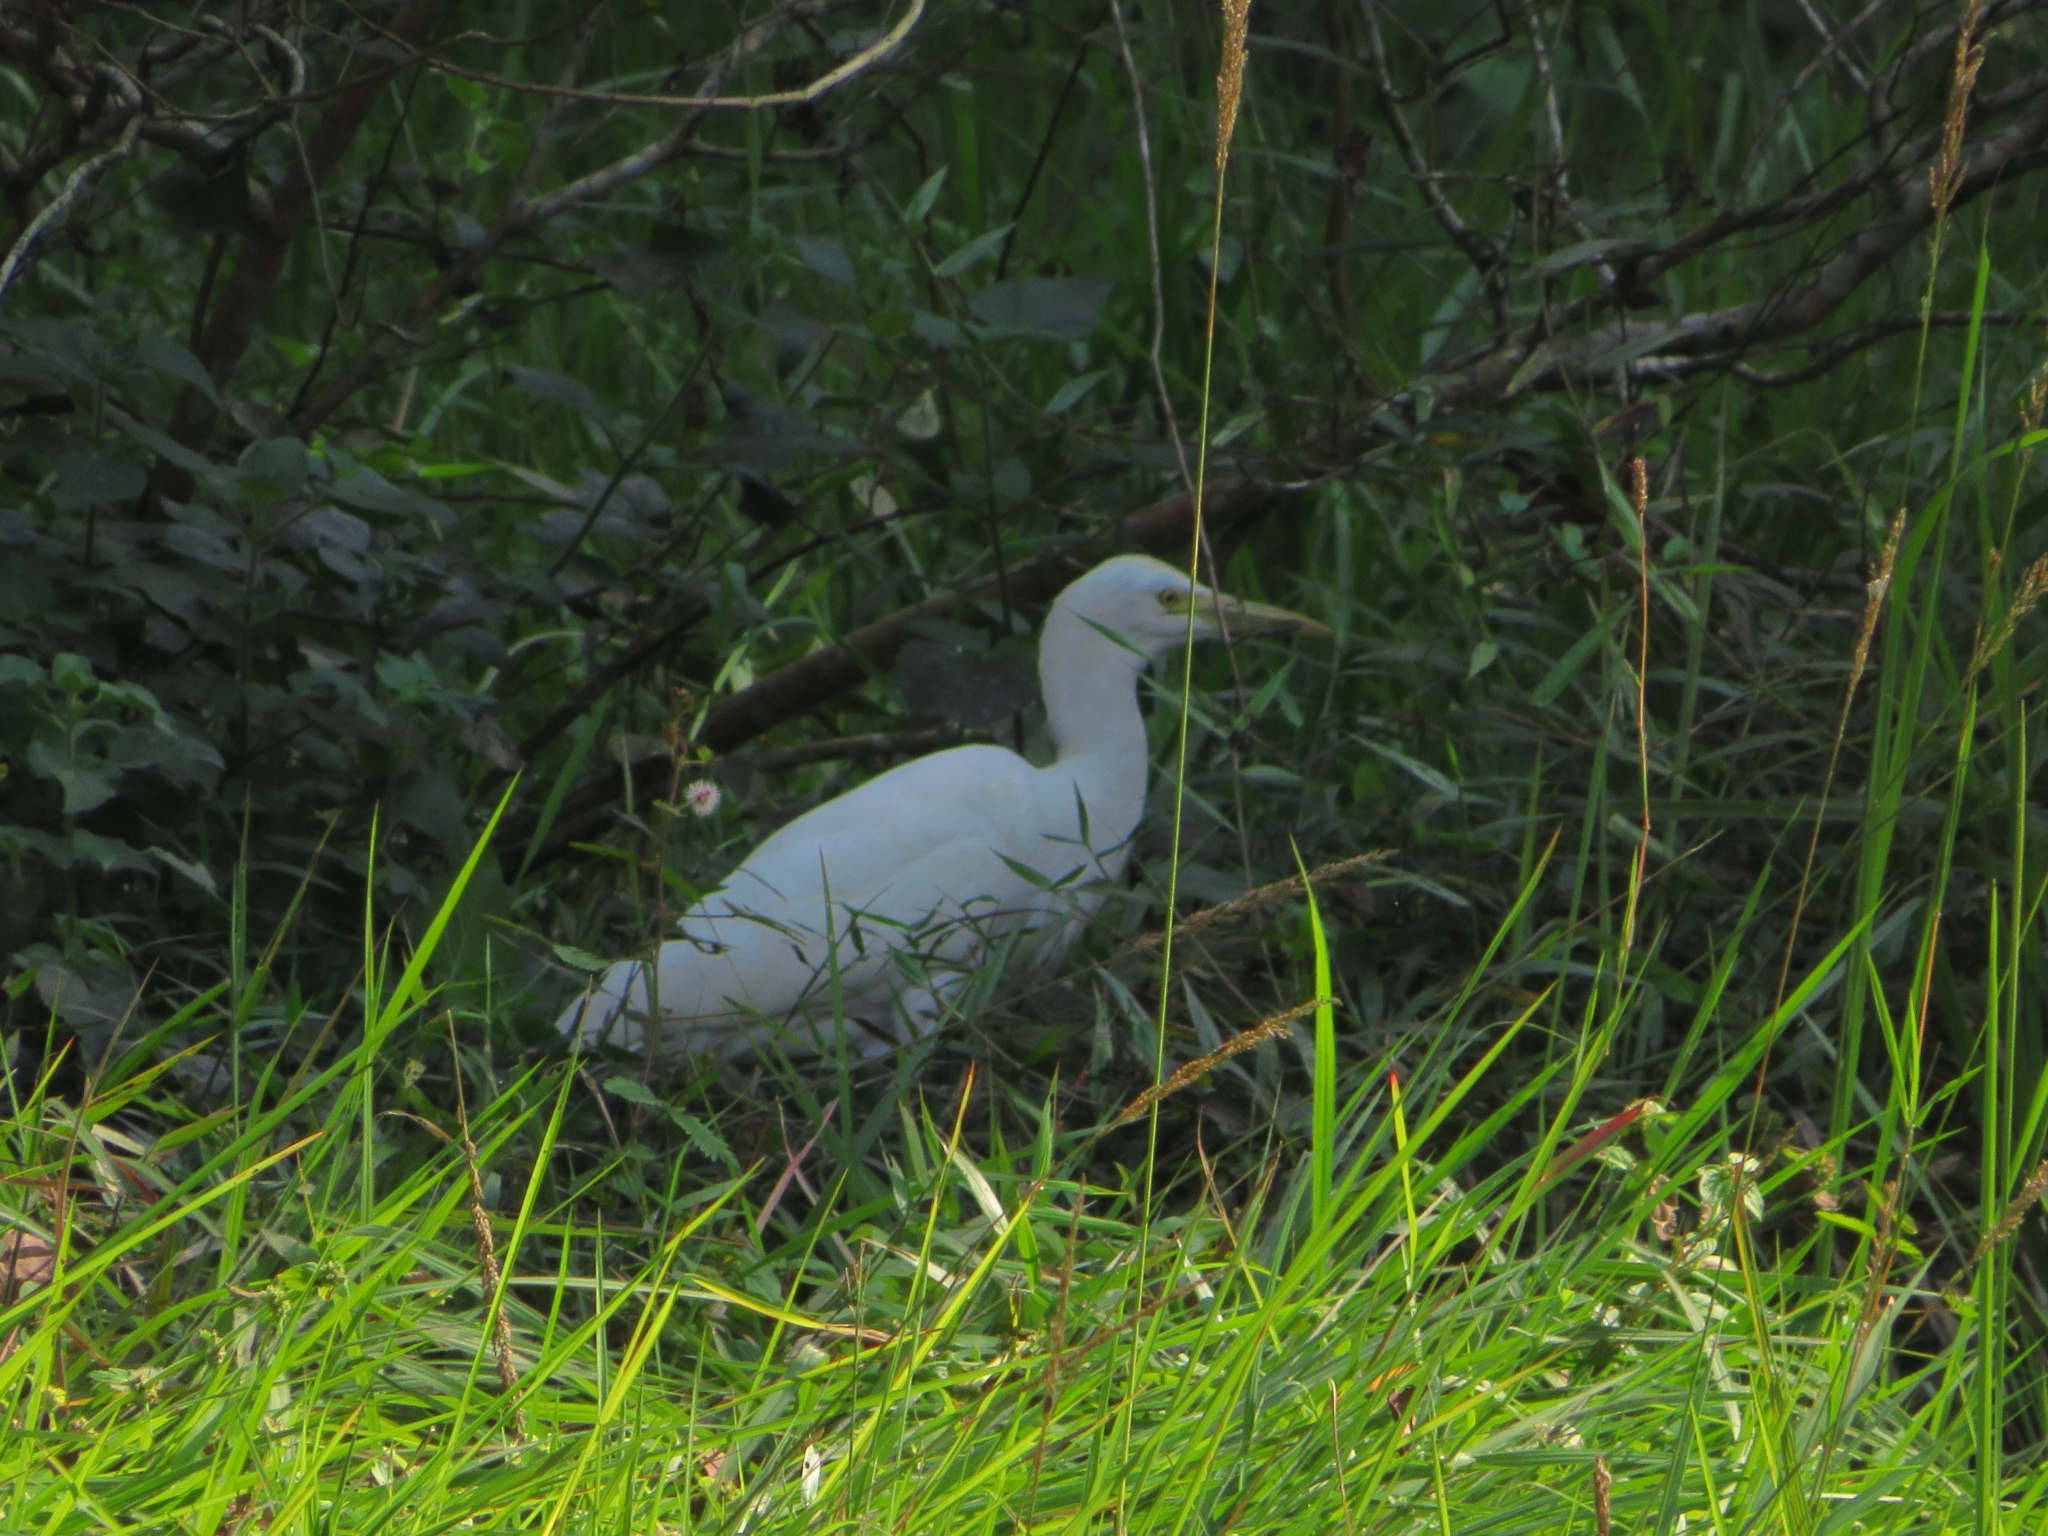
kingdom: Animalia
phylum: Chordata
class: Aves
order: Pelecaniformes
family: Ardeidae
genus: Bubulcus
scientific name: Bubulcus coromandus
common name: Eastern cattle egret
